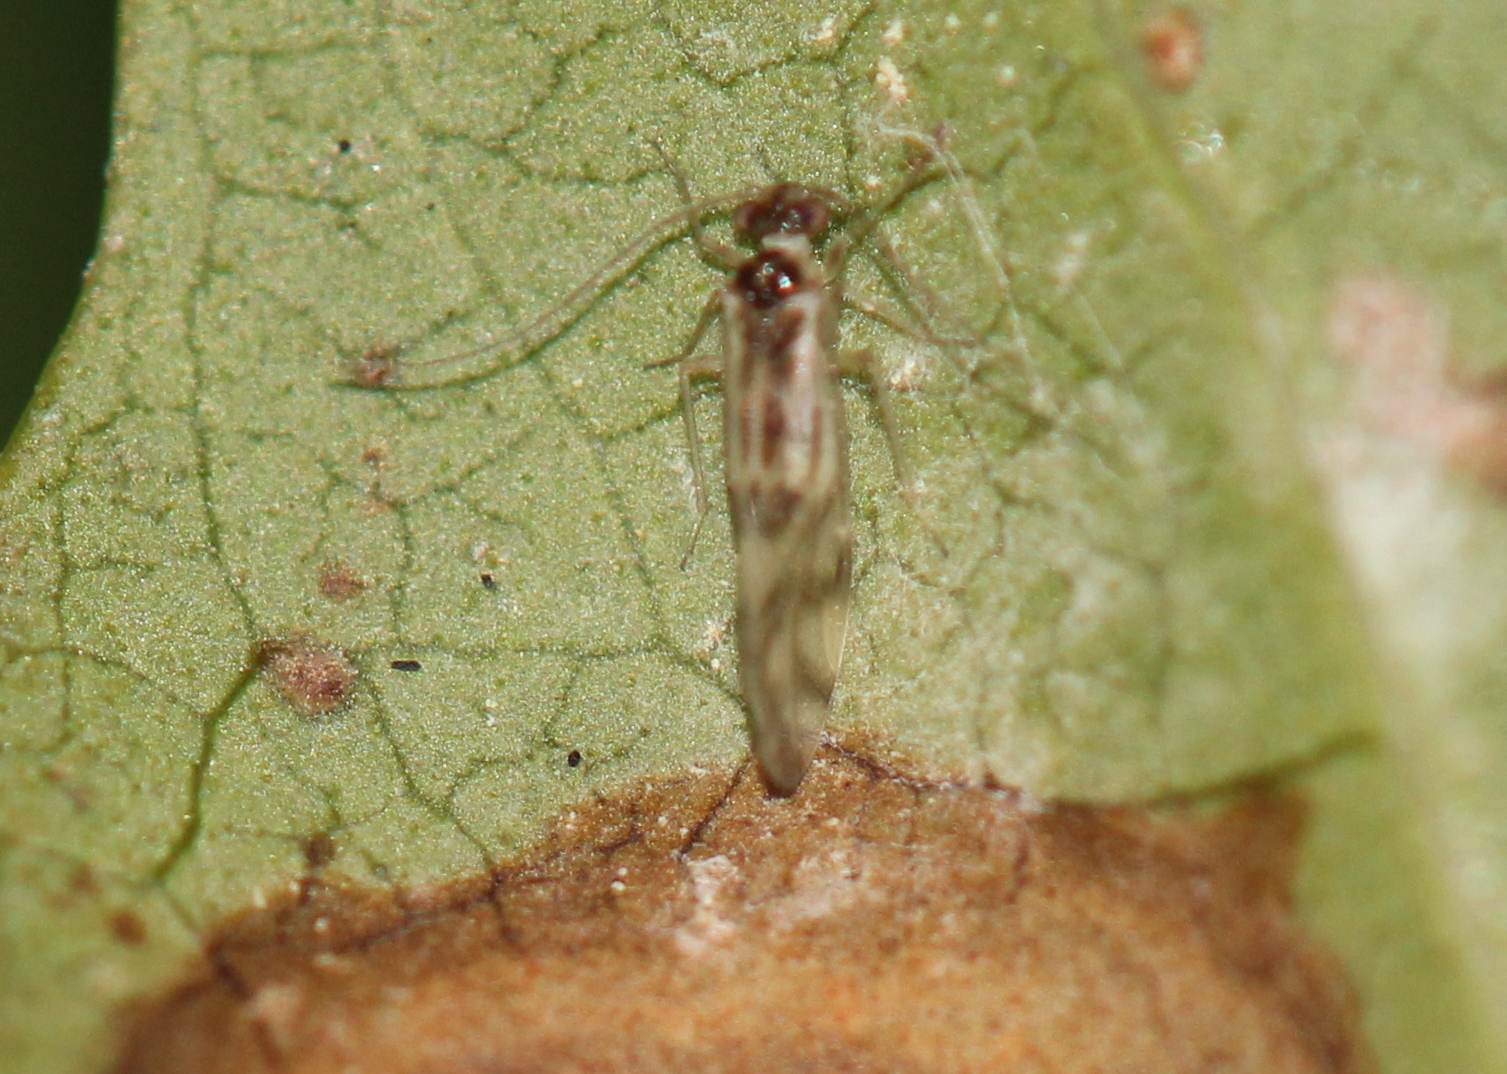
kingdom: Animalia
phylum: Arthropoda
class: Insecta
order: Psocodea
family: Stenopsocidae
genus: Graphopsocus
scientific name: Graphopsocus cruciatus
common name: Lizard bark louse
